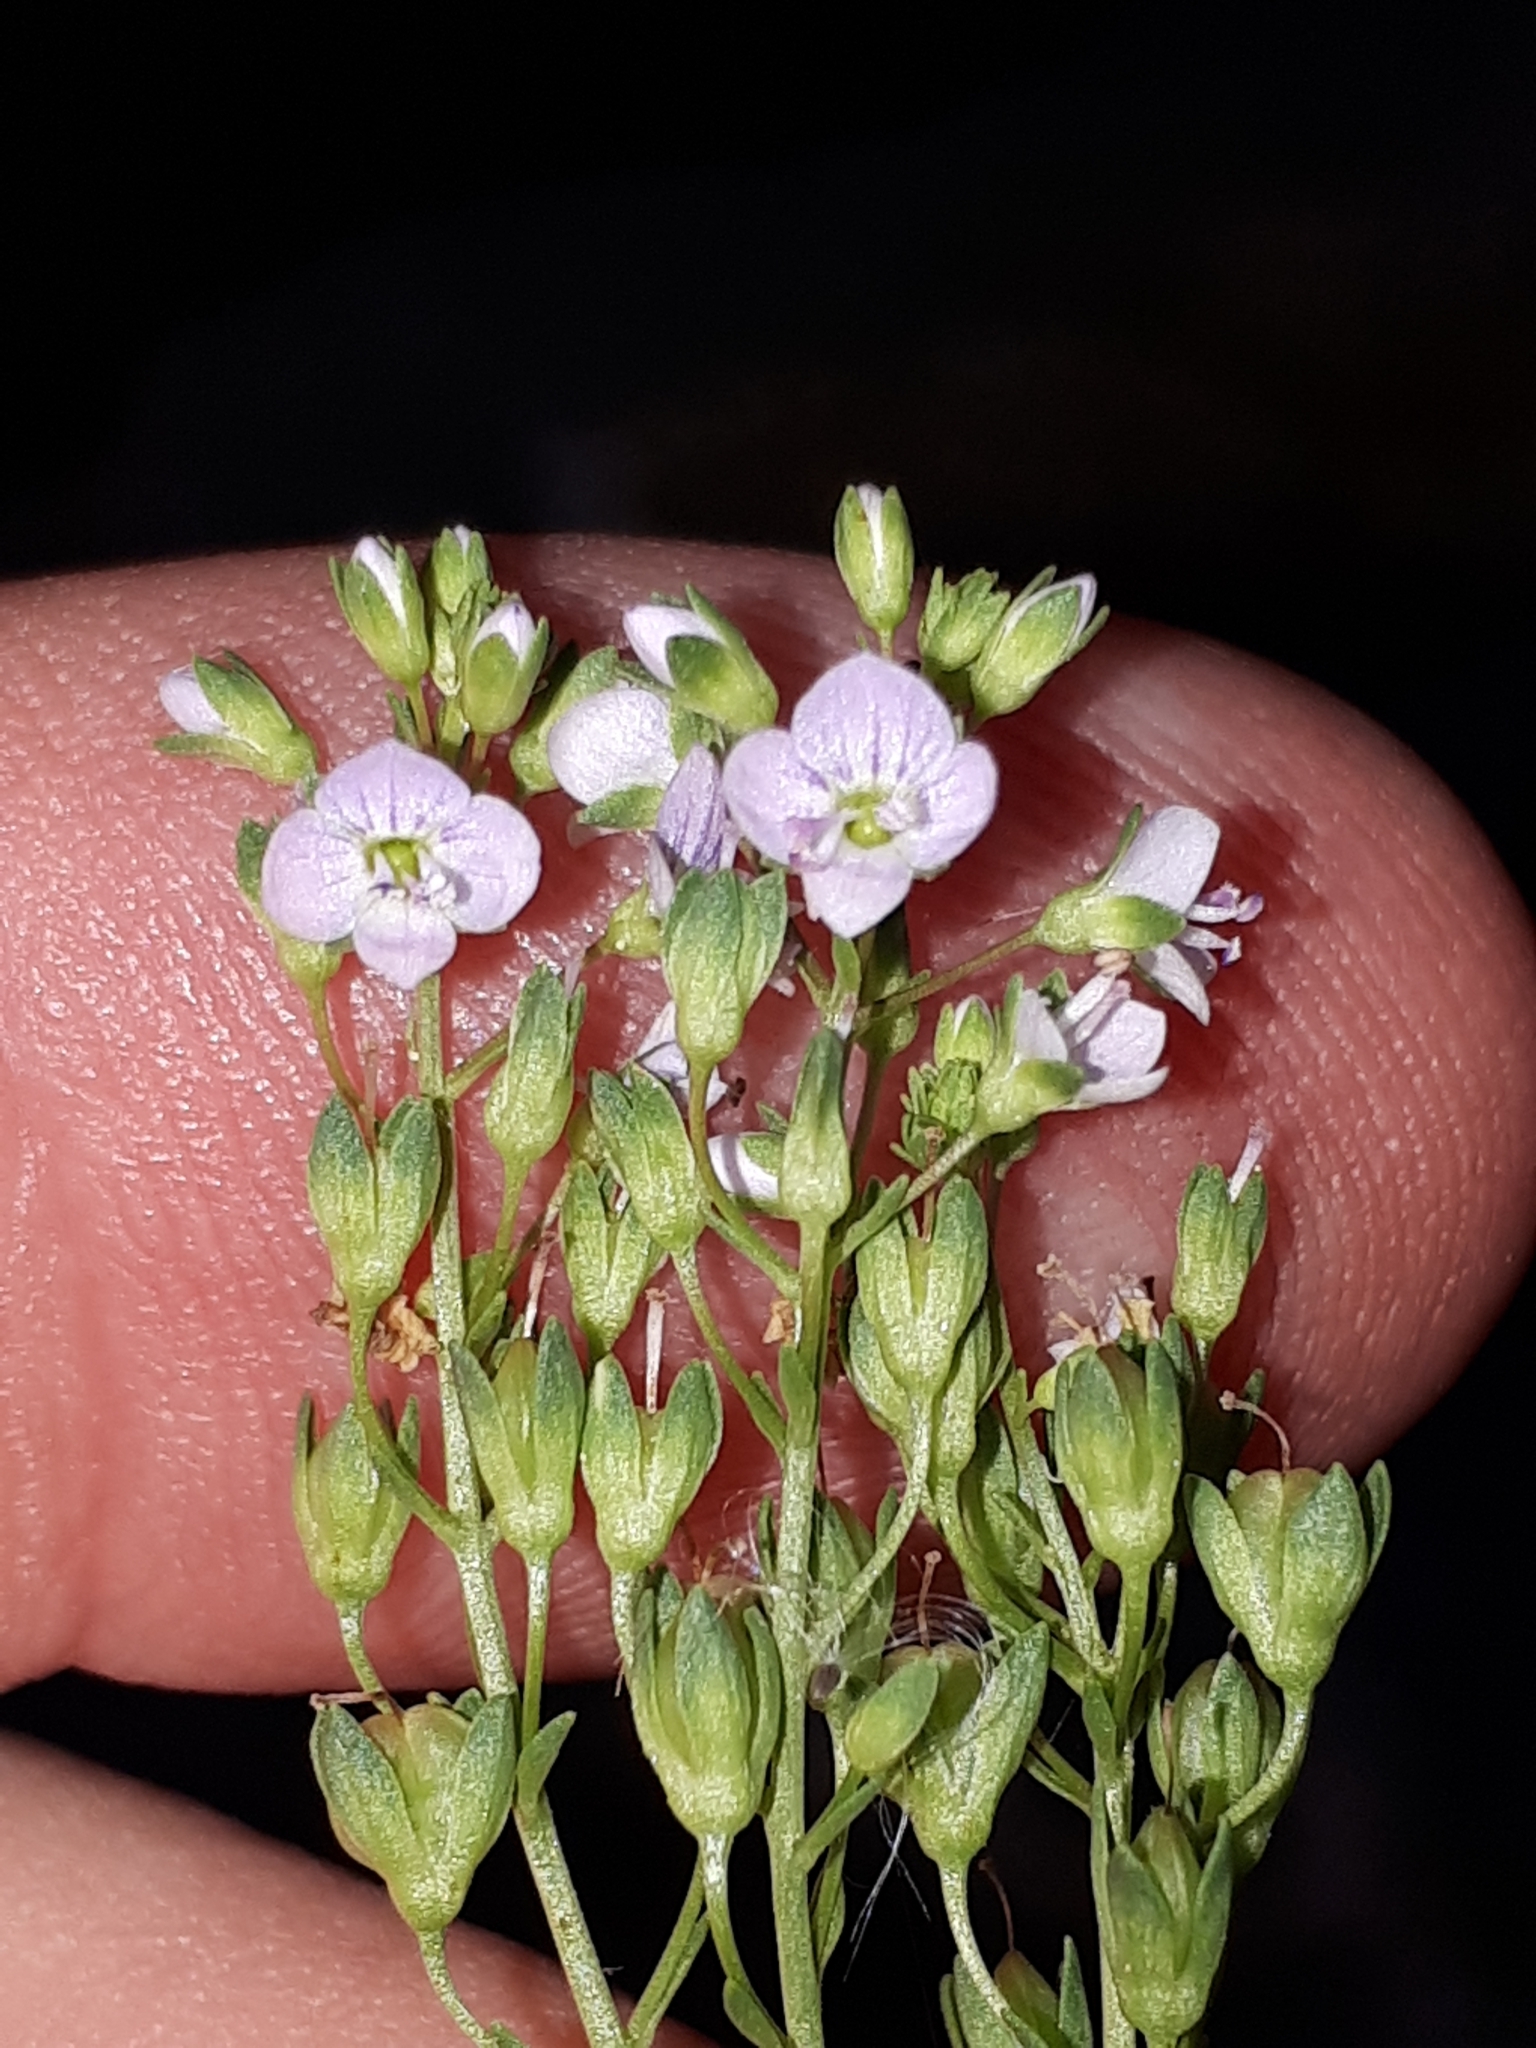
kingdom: Plantae
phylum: Tracheophyta
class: Magnoliopsida
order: Lamiales
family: Plantaginaceae
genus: Veronica
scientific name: Veronica anagallis-aquatica
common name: Water speedwell
